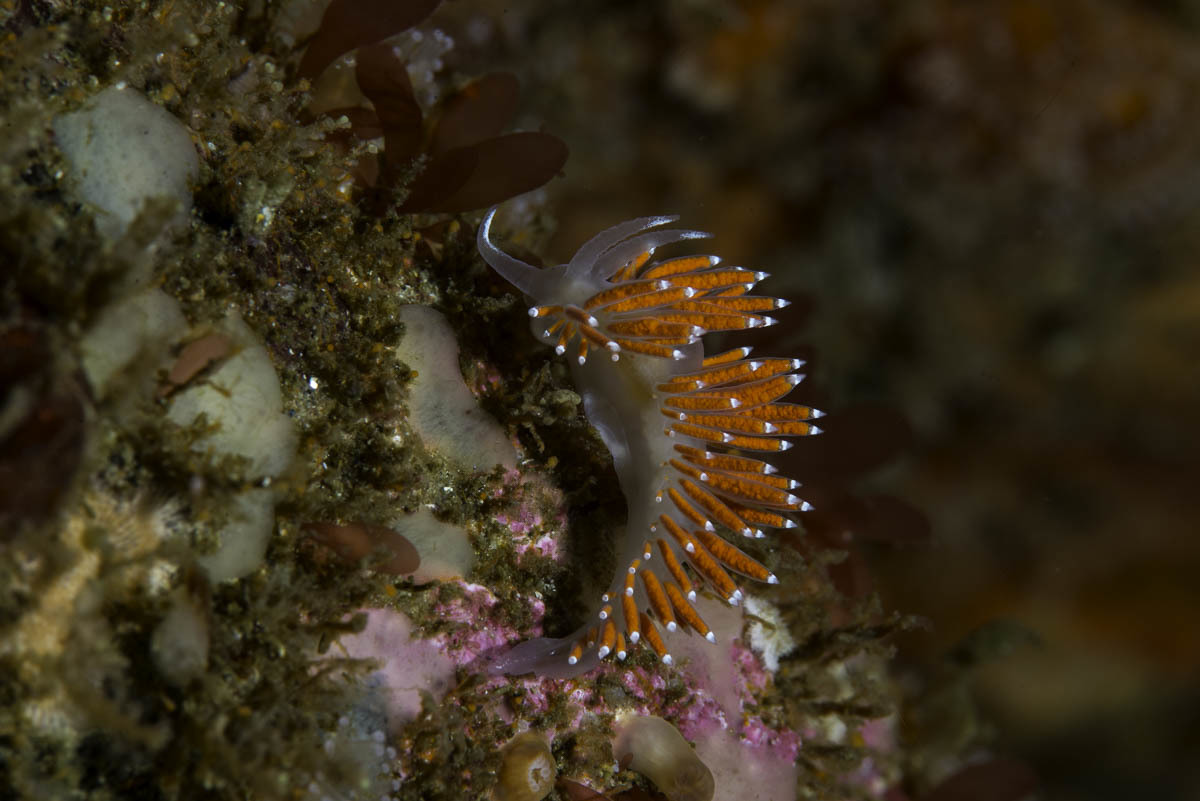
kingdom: Animalia
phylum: Mollusca
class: Gastropoda
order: Nudibranchia
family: Coryphellidae
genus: Coryphella
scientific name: Coryphella browni
